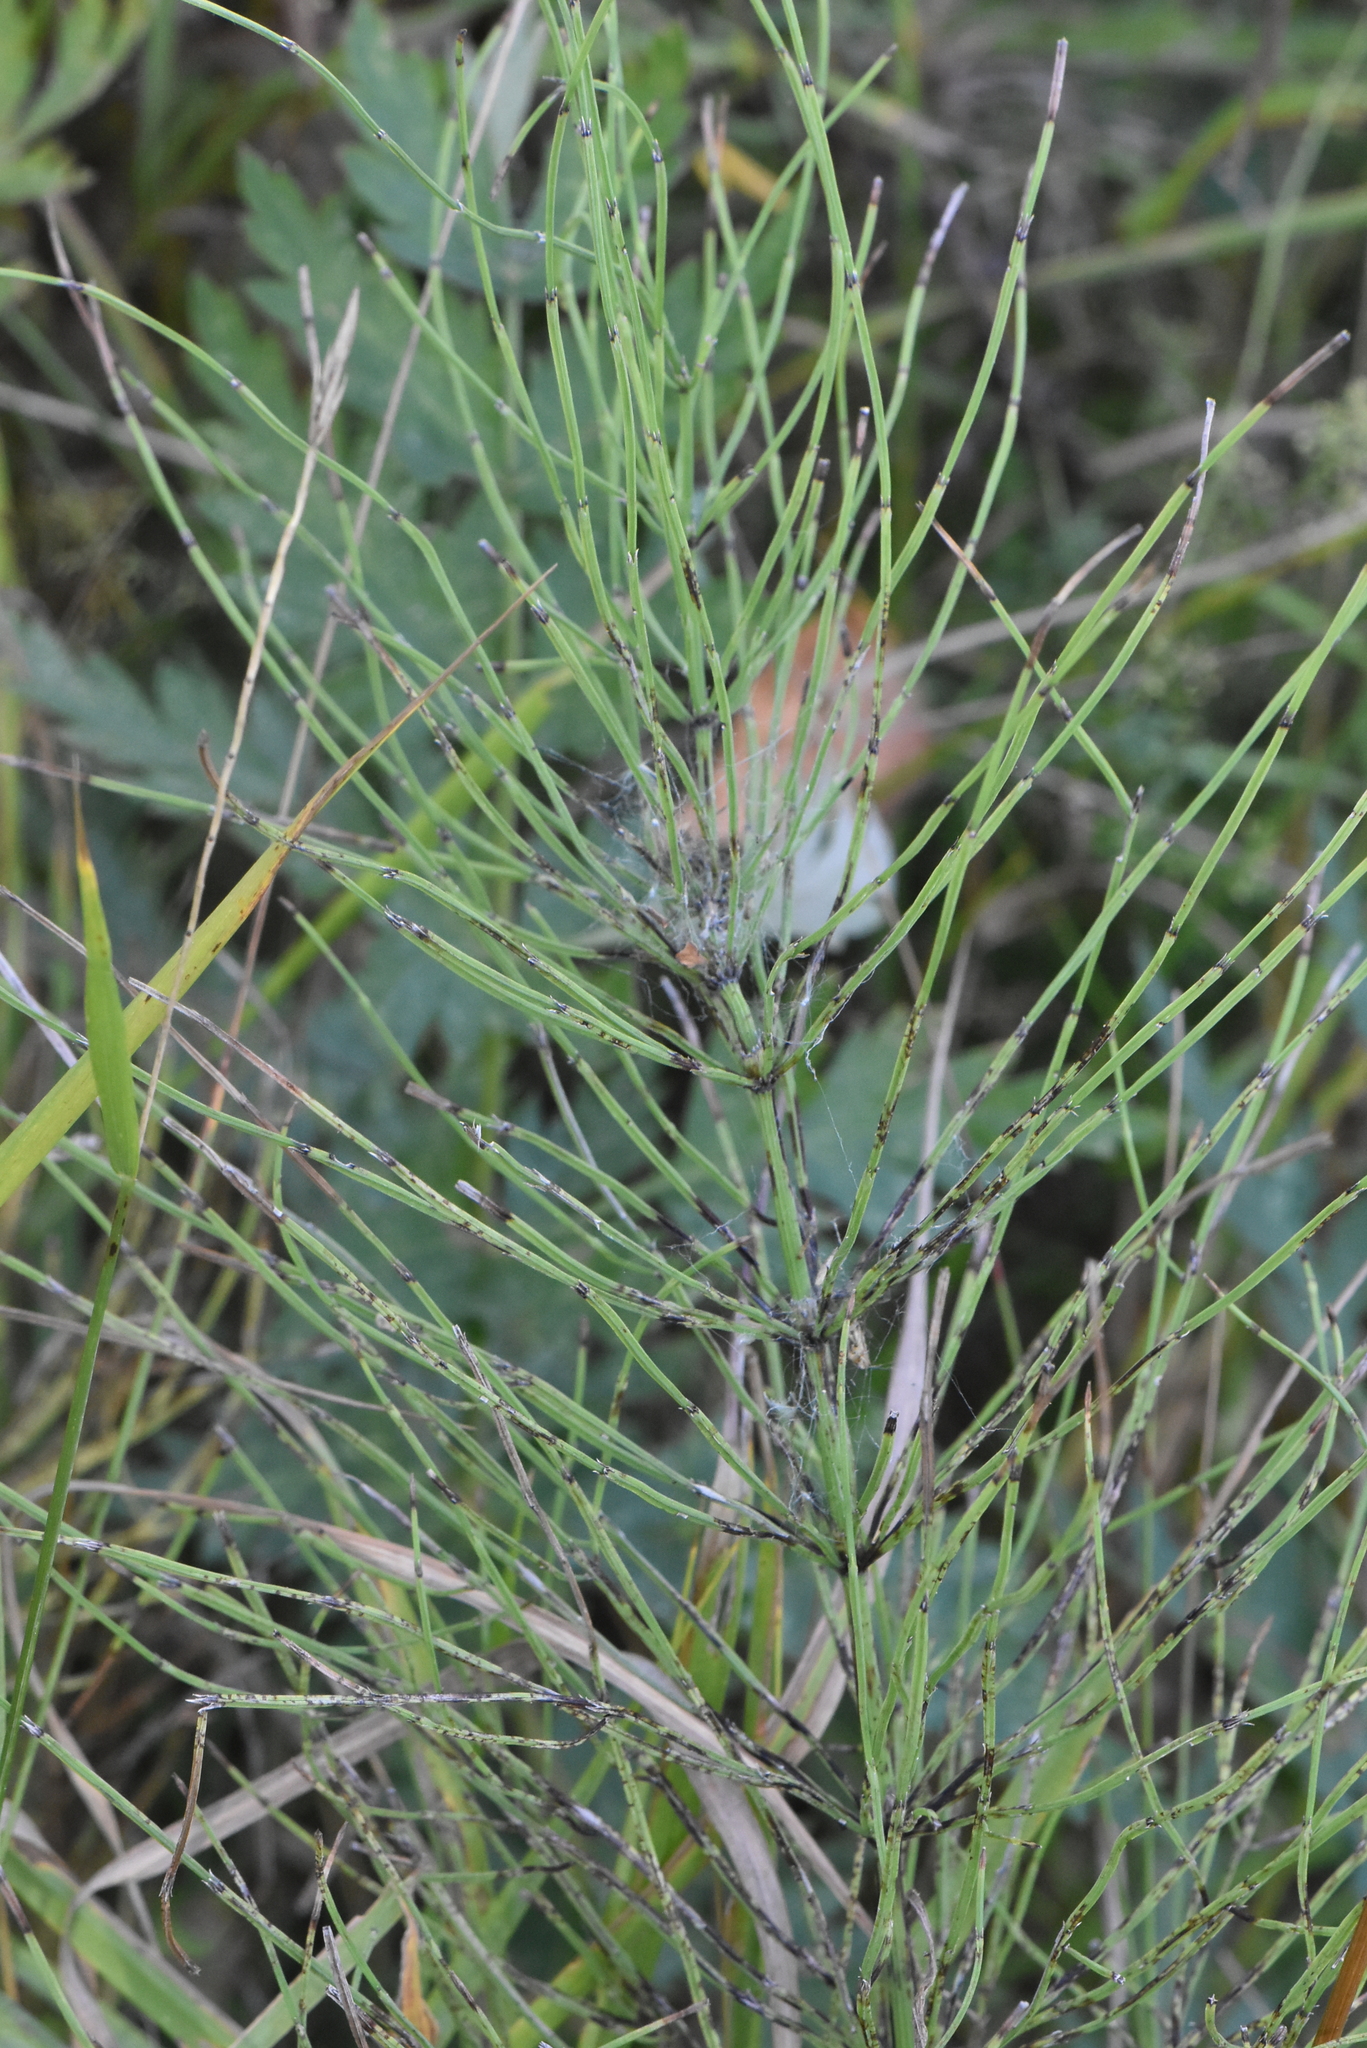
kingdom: Plantae
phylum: Tracheophyta
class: Polypodiopsida
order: Equisetales
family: Equisetaceae
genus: Equisetum
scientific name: Equisetum arvense
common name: Field horsetail
